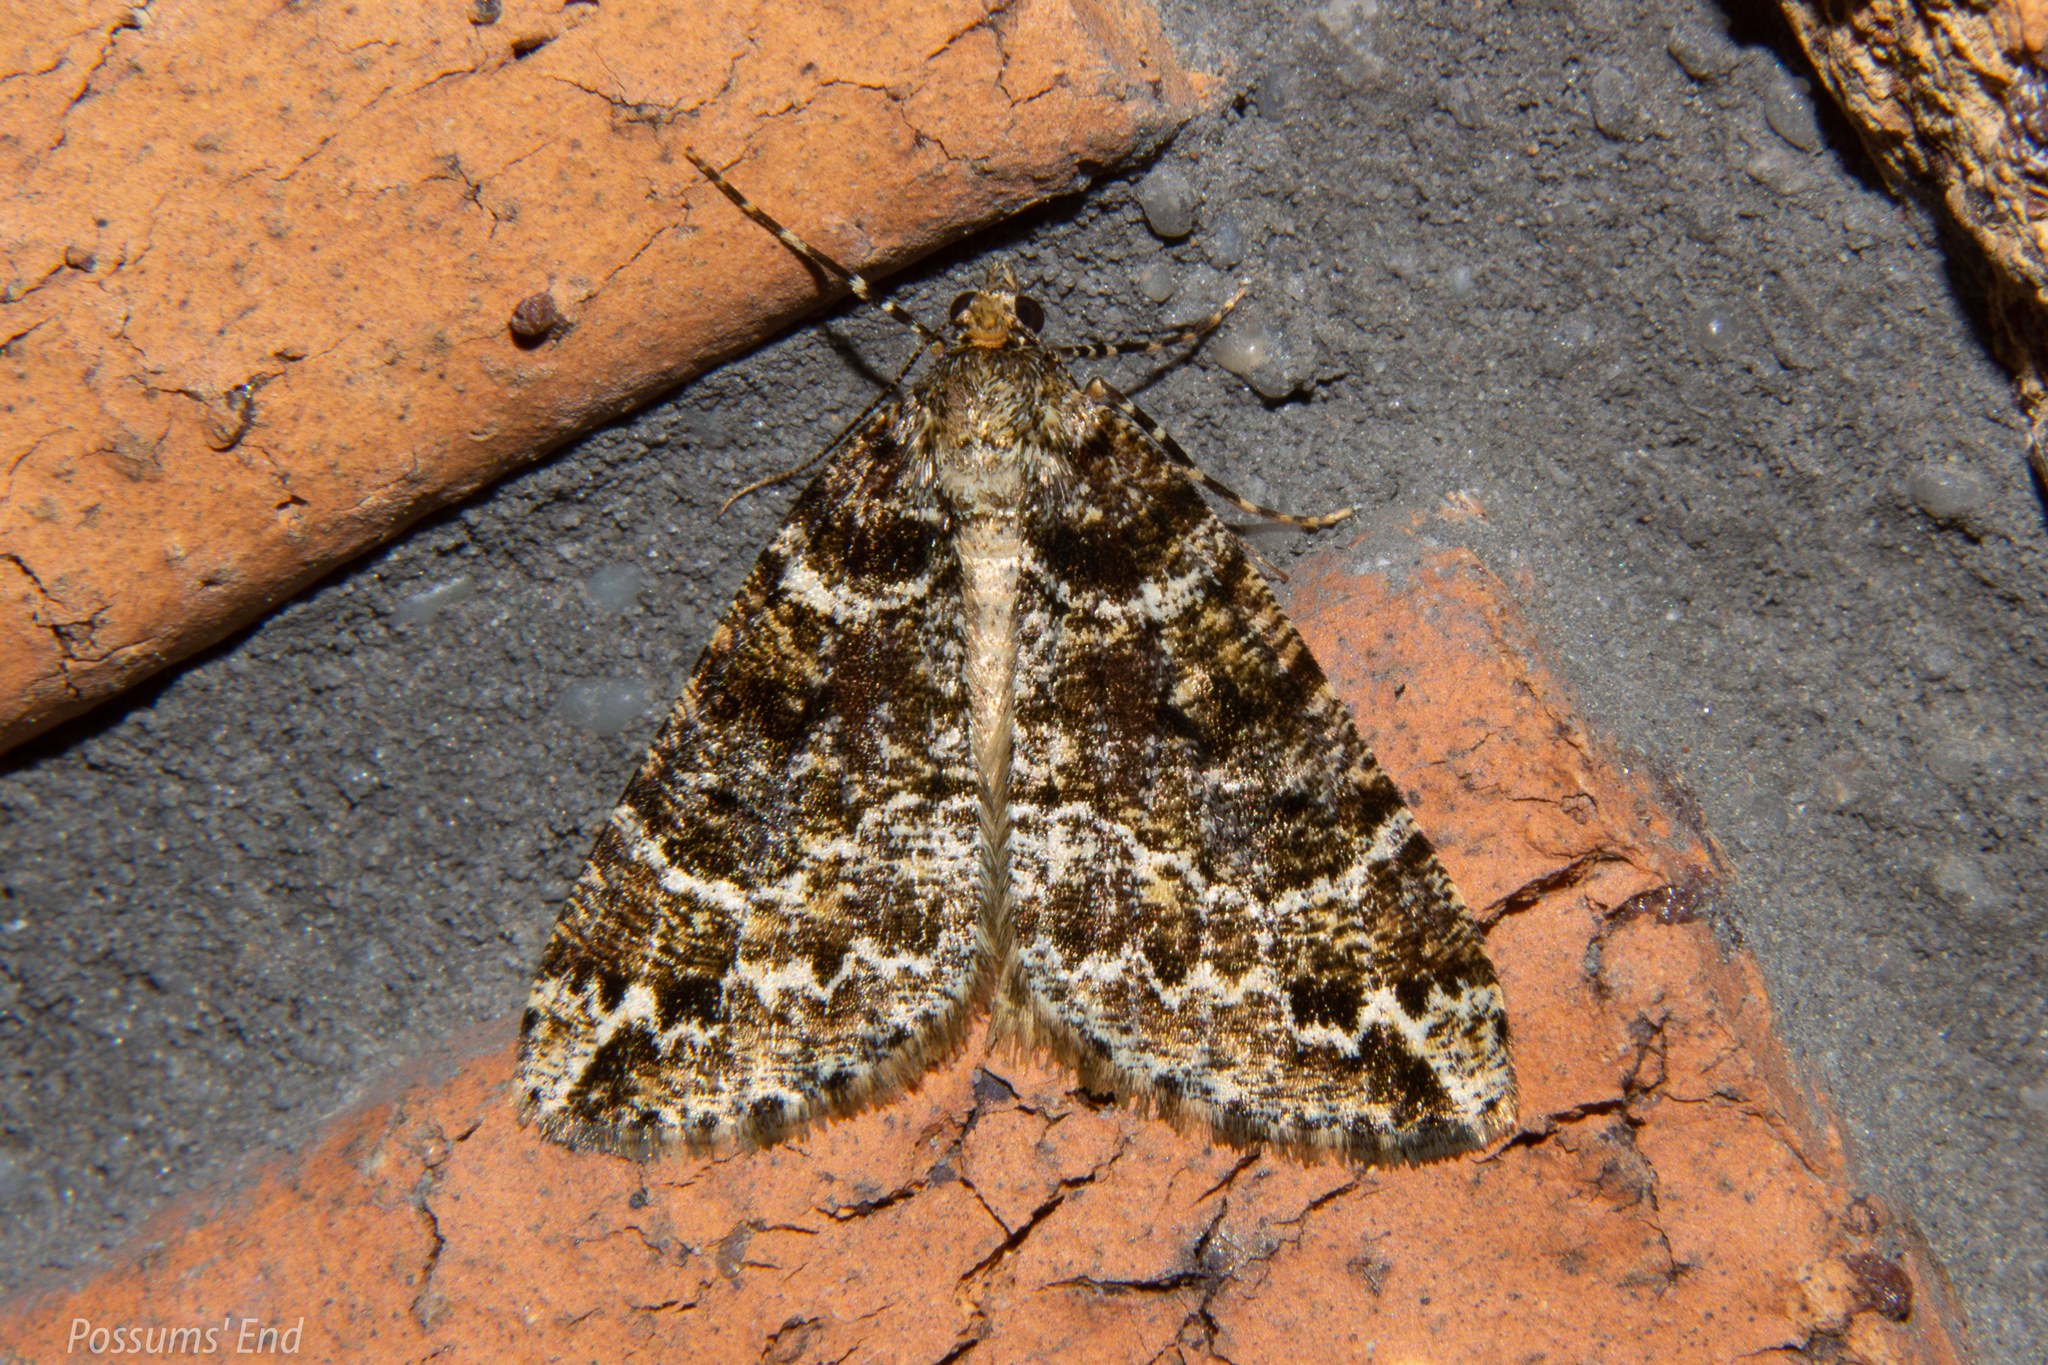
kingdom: Animalia
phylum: Arthropoda
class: Insecta
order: Lepidoptera
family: Geometridae
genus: Pseudocoremia
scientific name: Pseudocoremia productata
